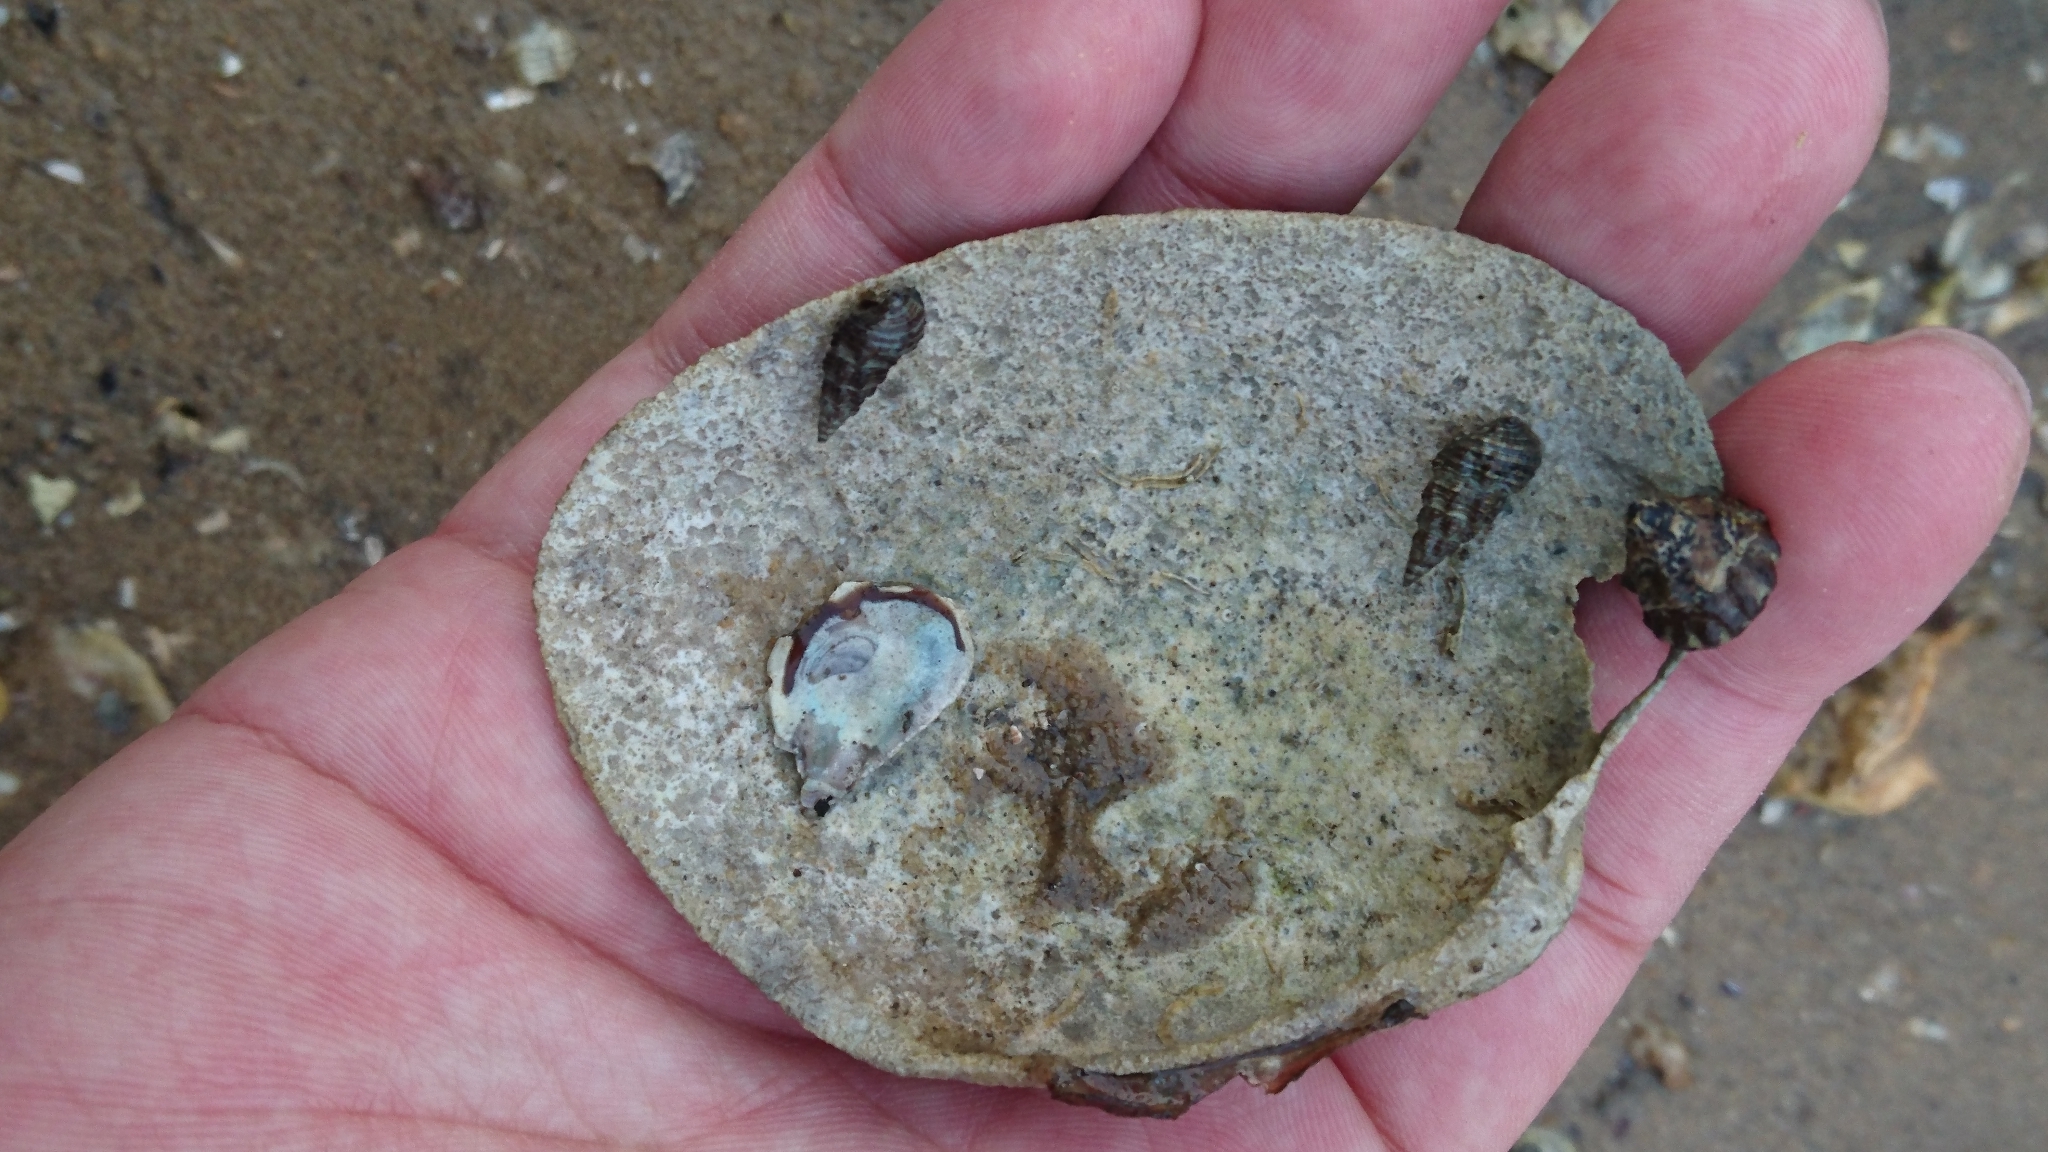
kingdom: Animalia
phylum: Mollusca
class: Gastropoda
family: Batillariidae
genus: Batillaria
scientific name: Batillaria australis
